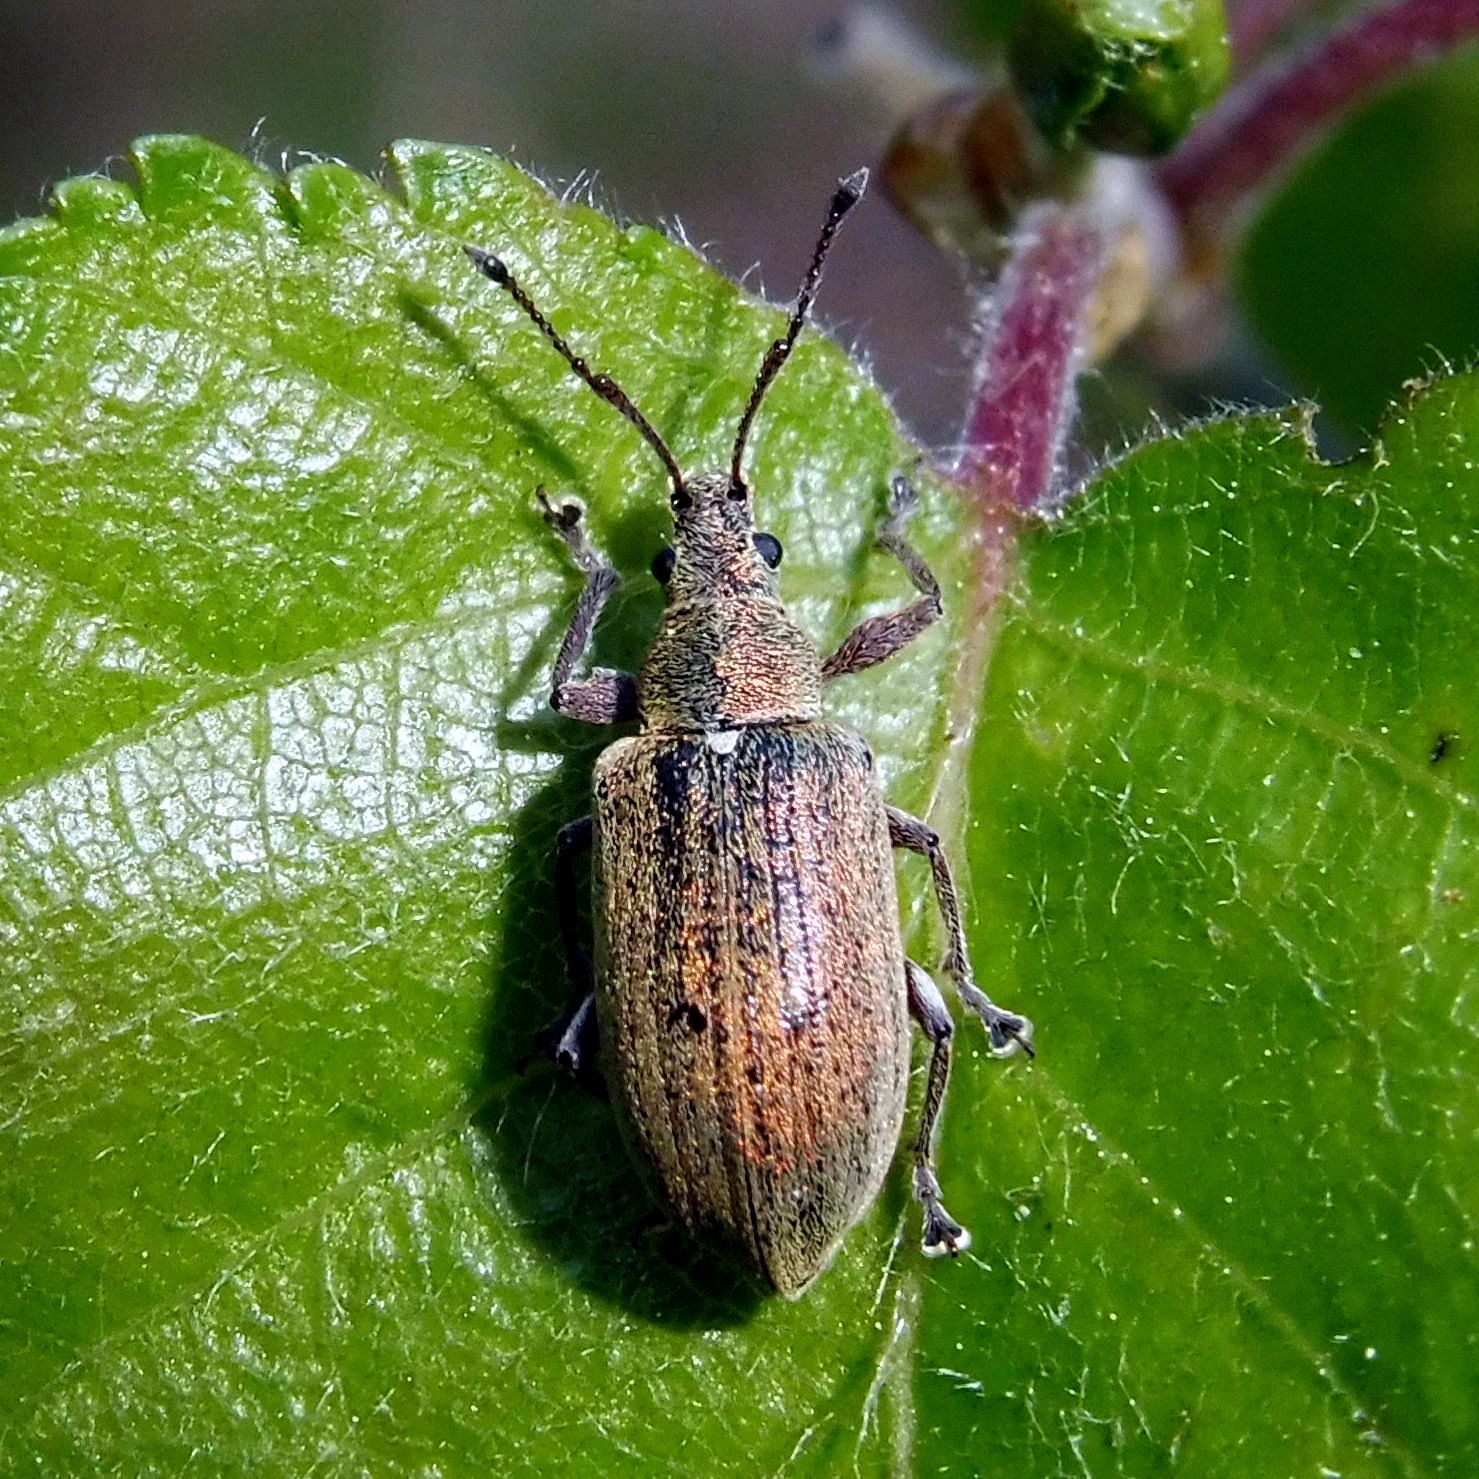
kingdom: Animalia
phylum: Arthropoda
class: Insecta
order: Coleoptera
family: Curculionidae
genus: Phyllobius
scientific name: Phyllobius pyri
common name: Common leaf weevil
